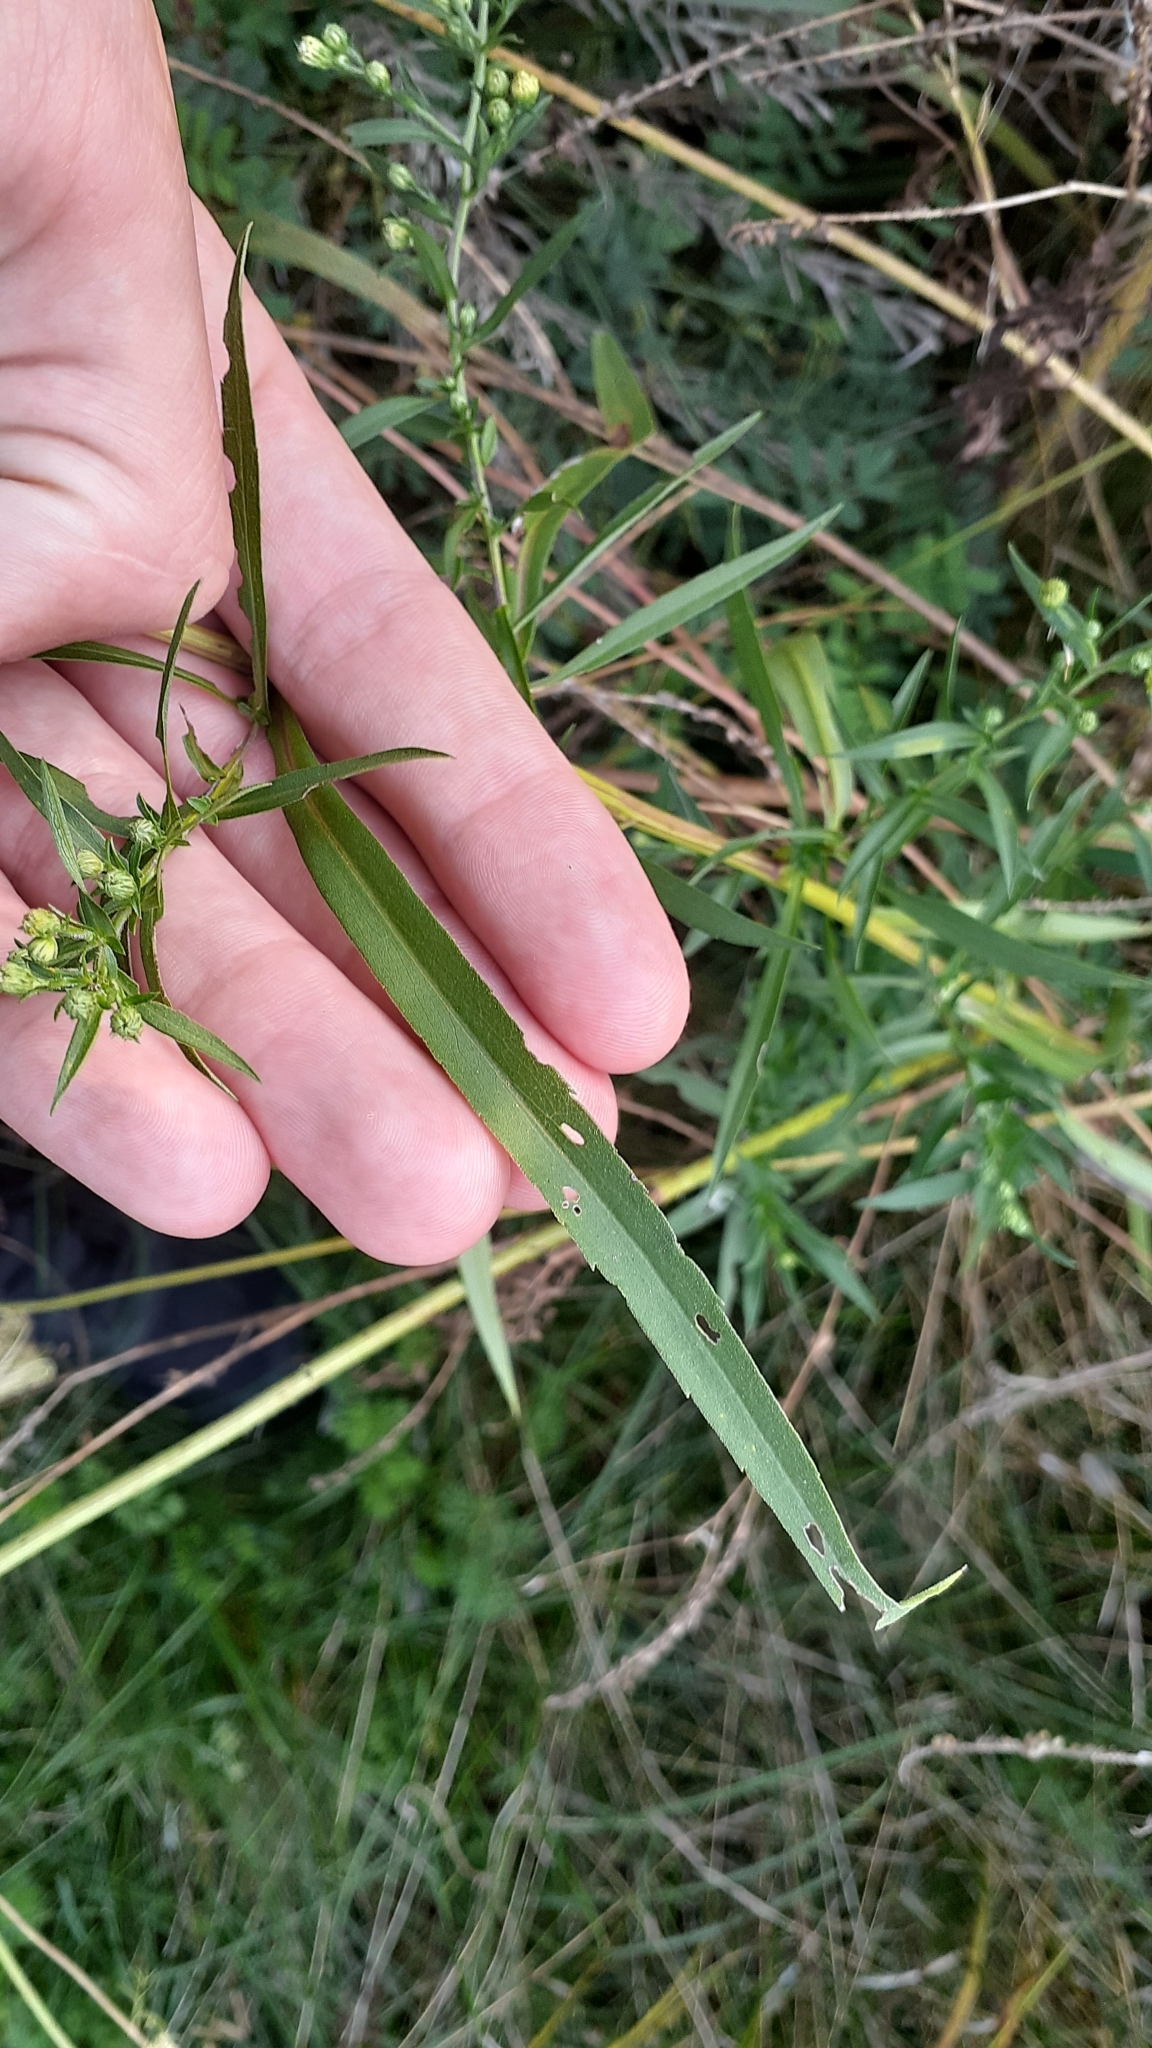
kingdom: Plantae
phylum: Tracheophyta
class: Magnoliopsida
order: Asterales
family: Asteraceae
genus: Symphyotrichum
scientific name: Symphyotrichum lanceolatum
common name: Panicled aster
